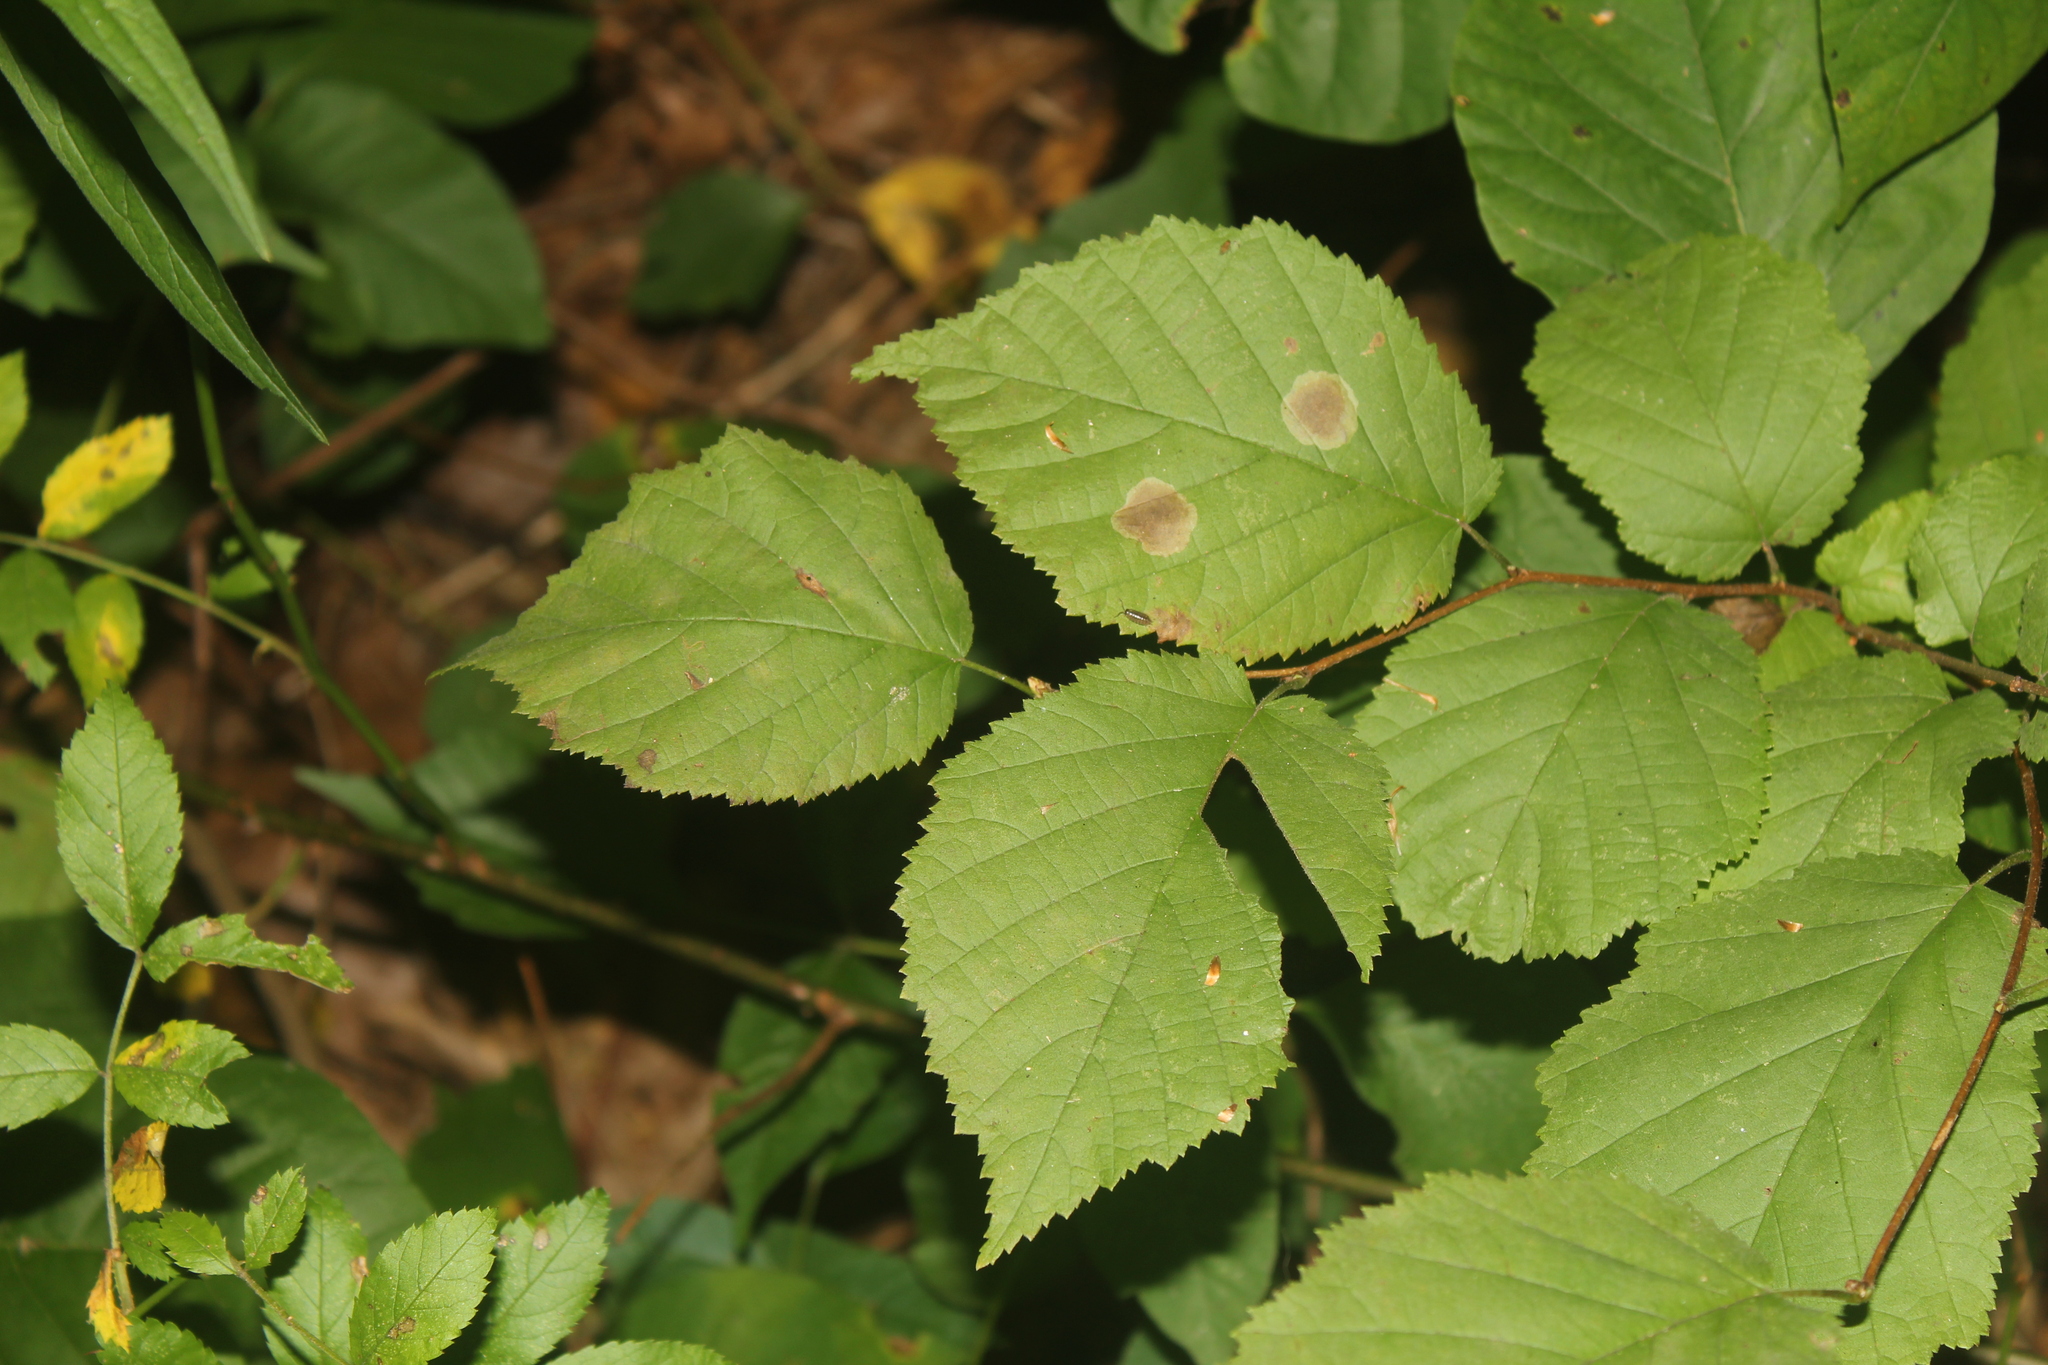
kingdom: Animalia
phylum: Arthropoda
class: Insecta
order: Lepidoptera
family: Gracillariidae
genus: Cameraria
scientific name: Cameraria corylisella
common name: Hazel blotchminer
